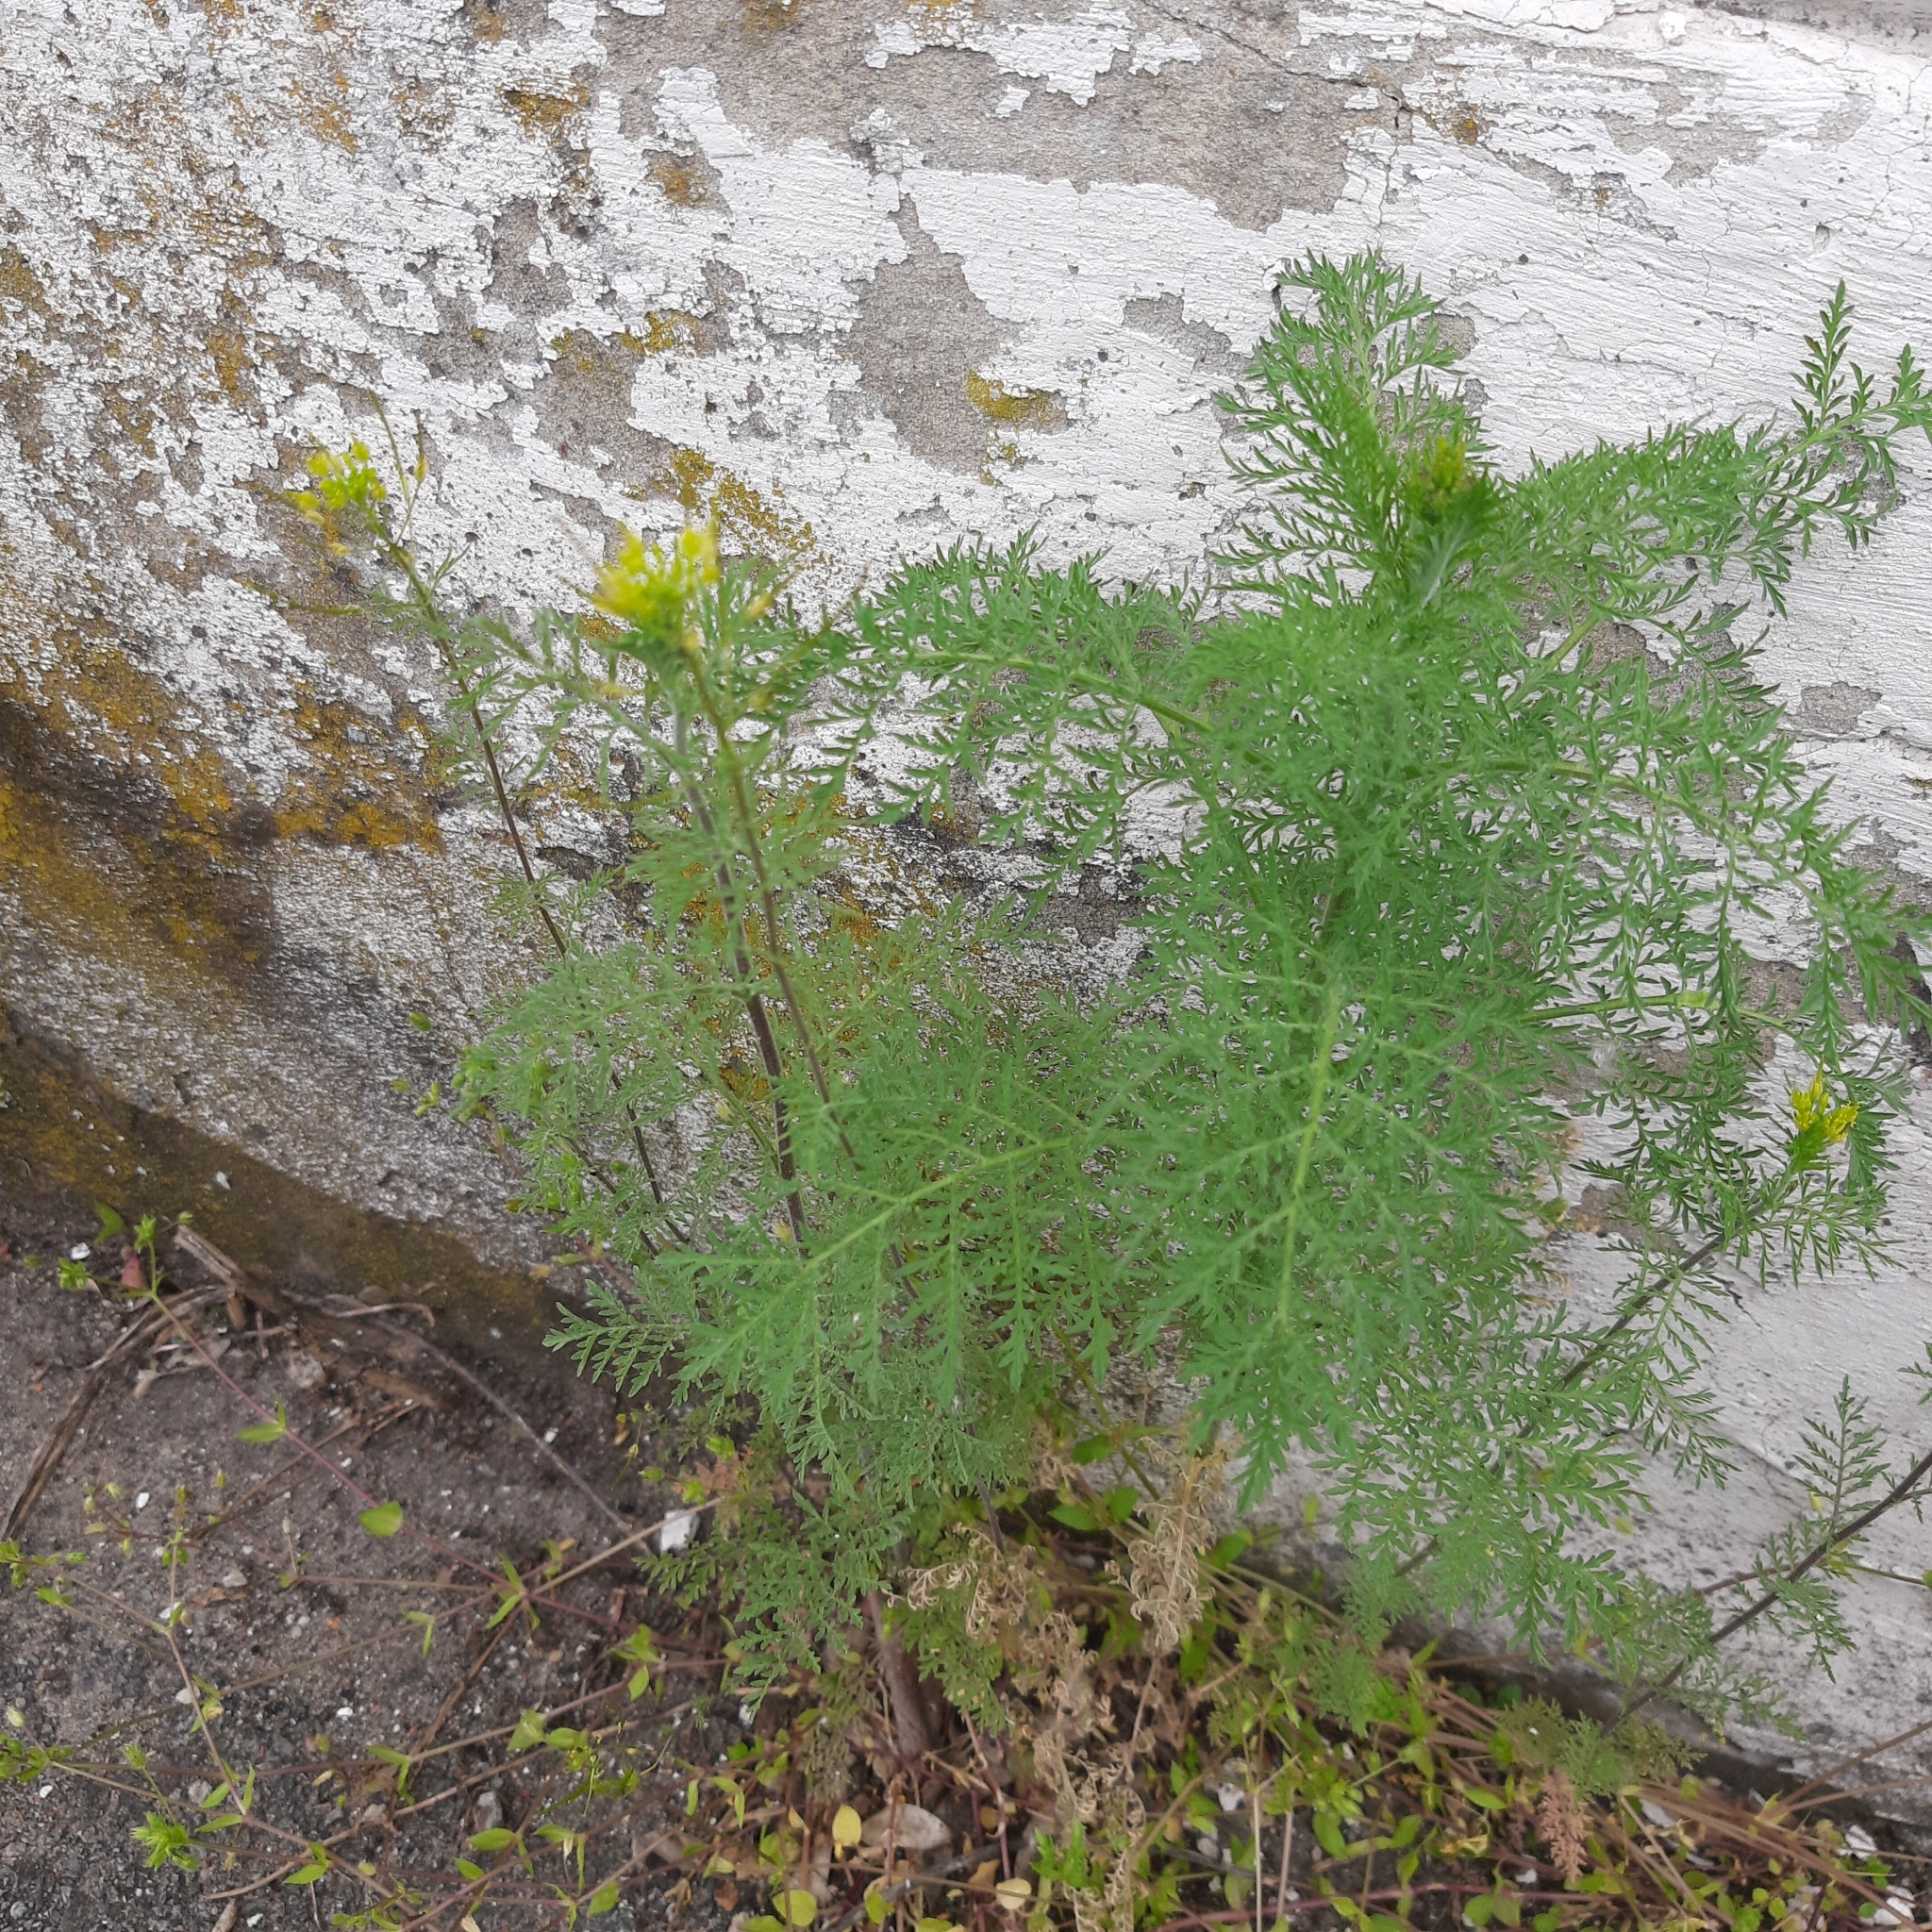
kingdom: Plantae
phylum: Tracheophyta
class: Magnoliopsida
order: Brassicales
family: Brassicaceae
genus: Descurainia
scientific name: Descurainia sophia
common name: Flixweed
